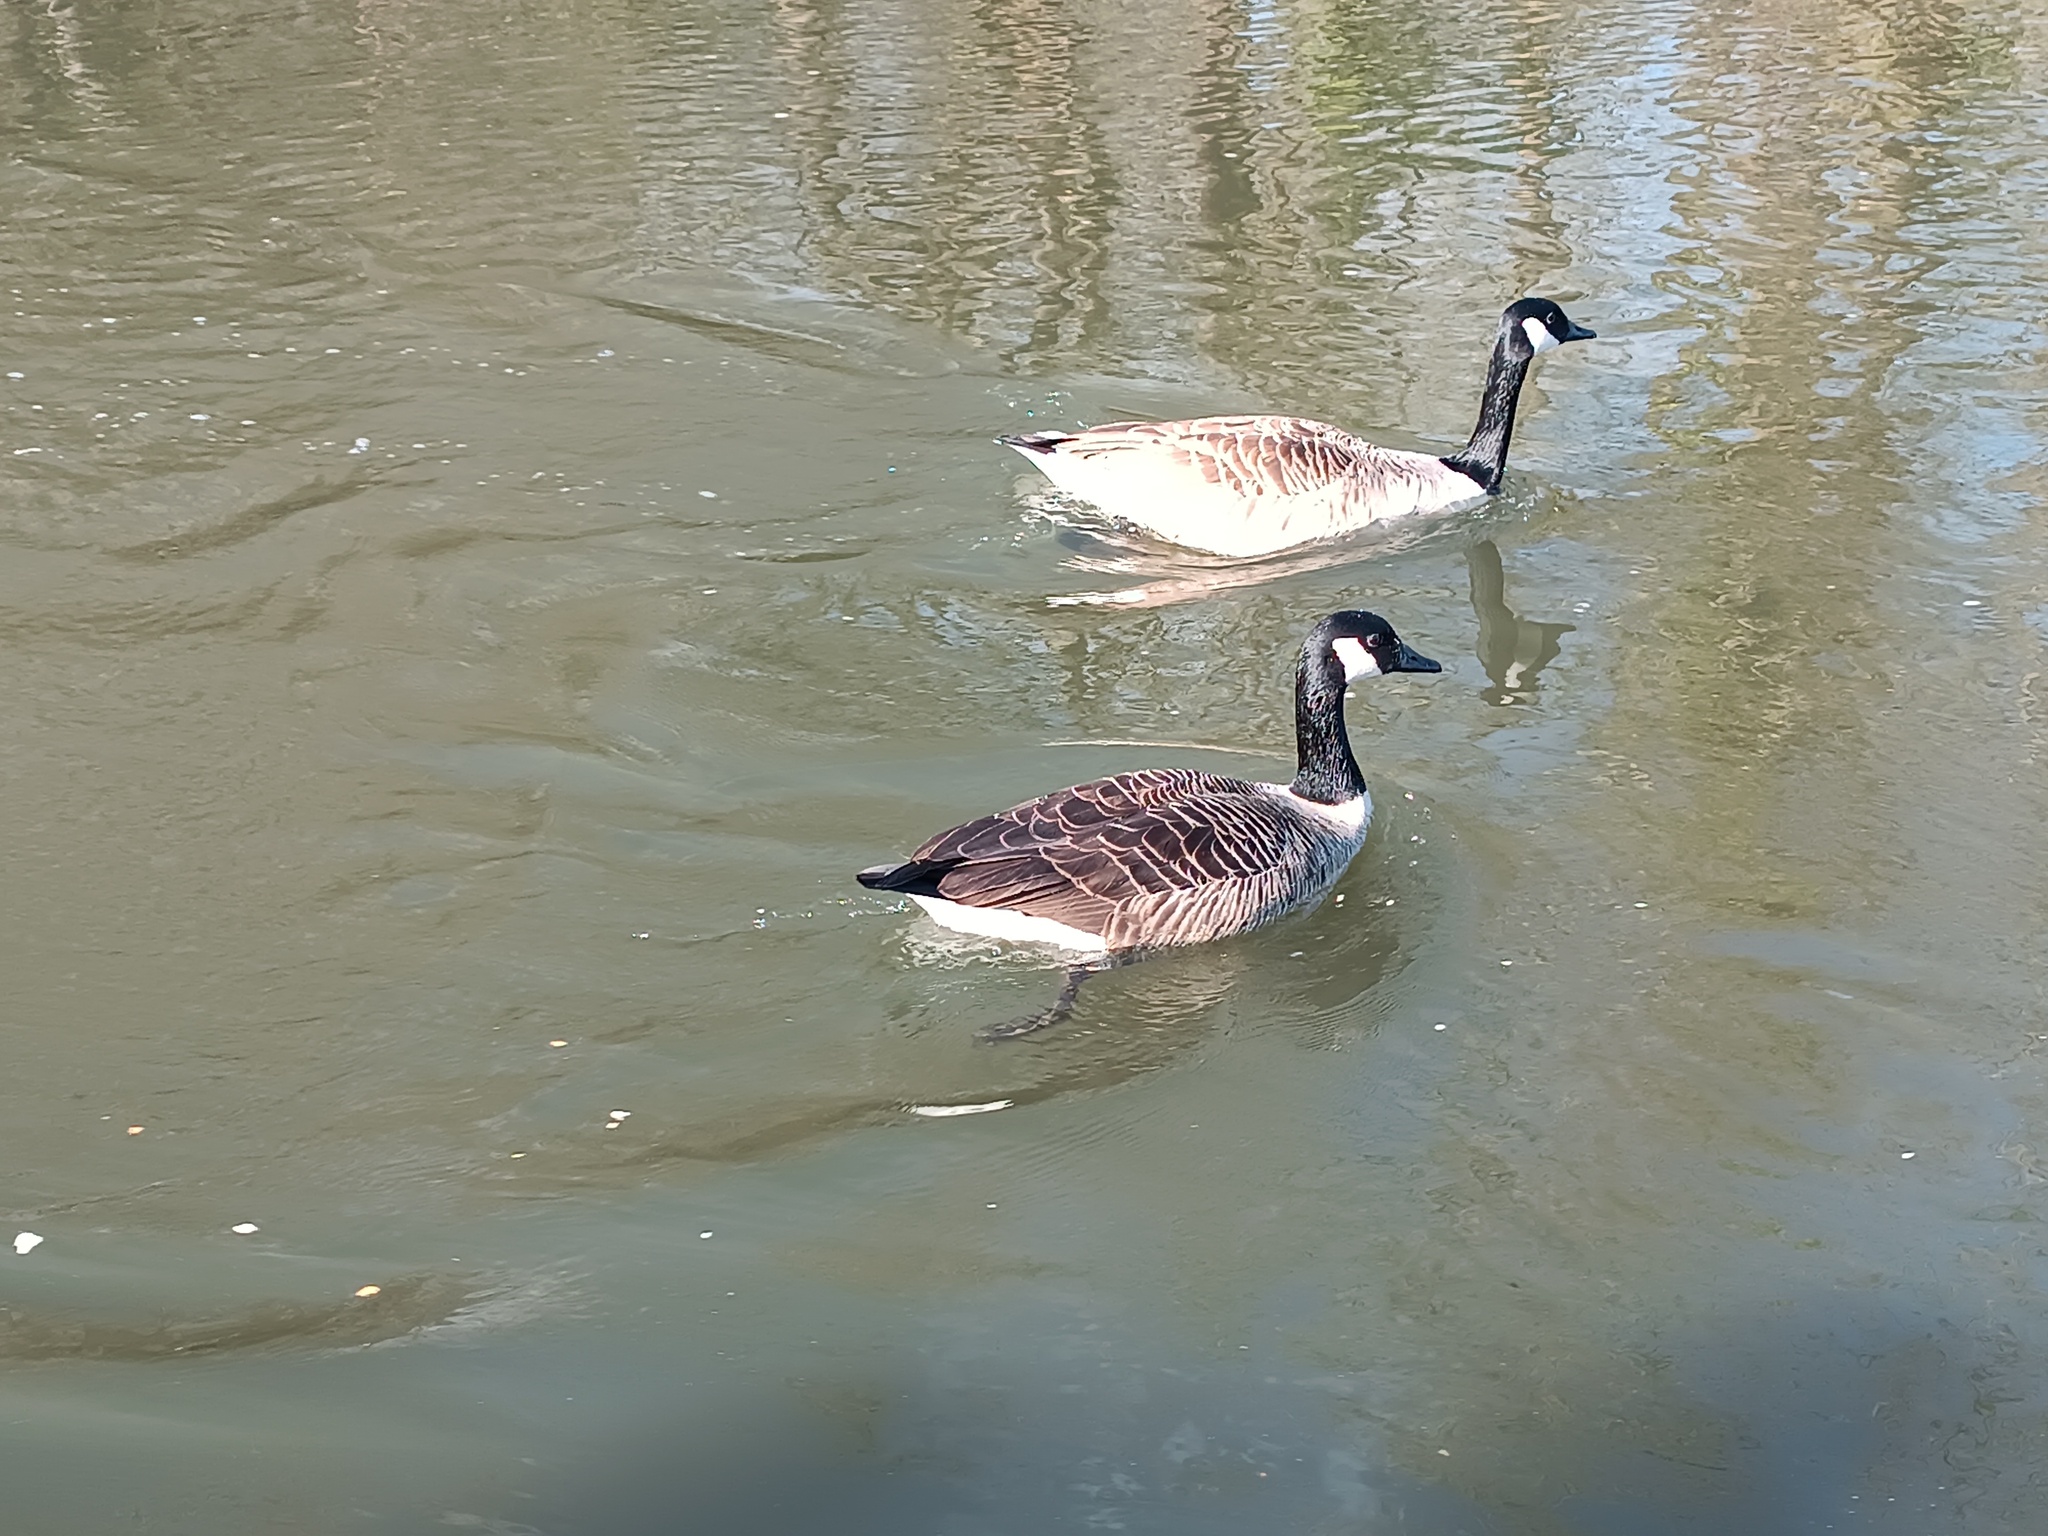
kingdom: Animalia
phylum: Chordata
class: Aves
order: Anseriformes
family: Anatidae
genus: Branta
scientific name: Branta canadensis
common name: Canada goose
